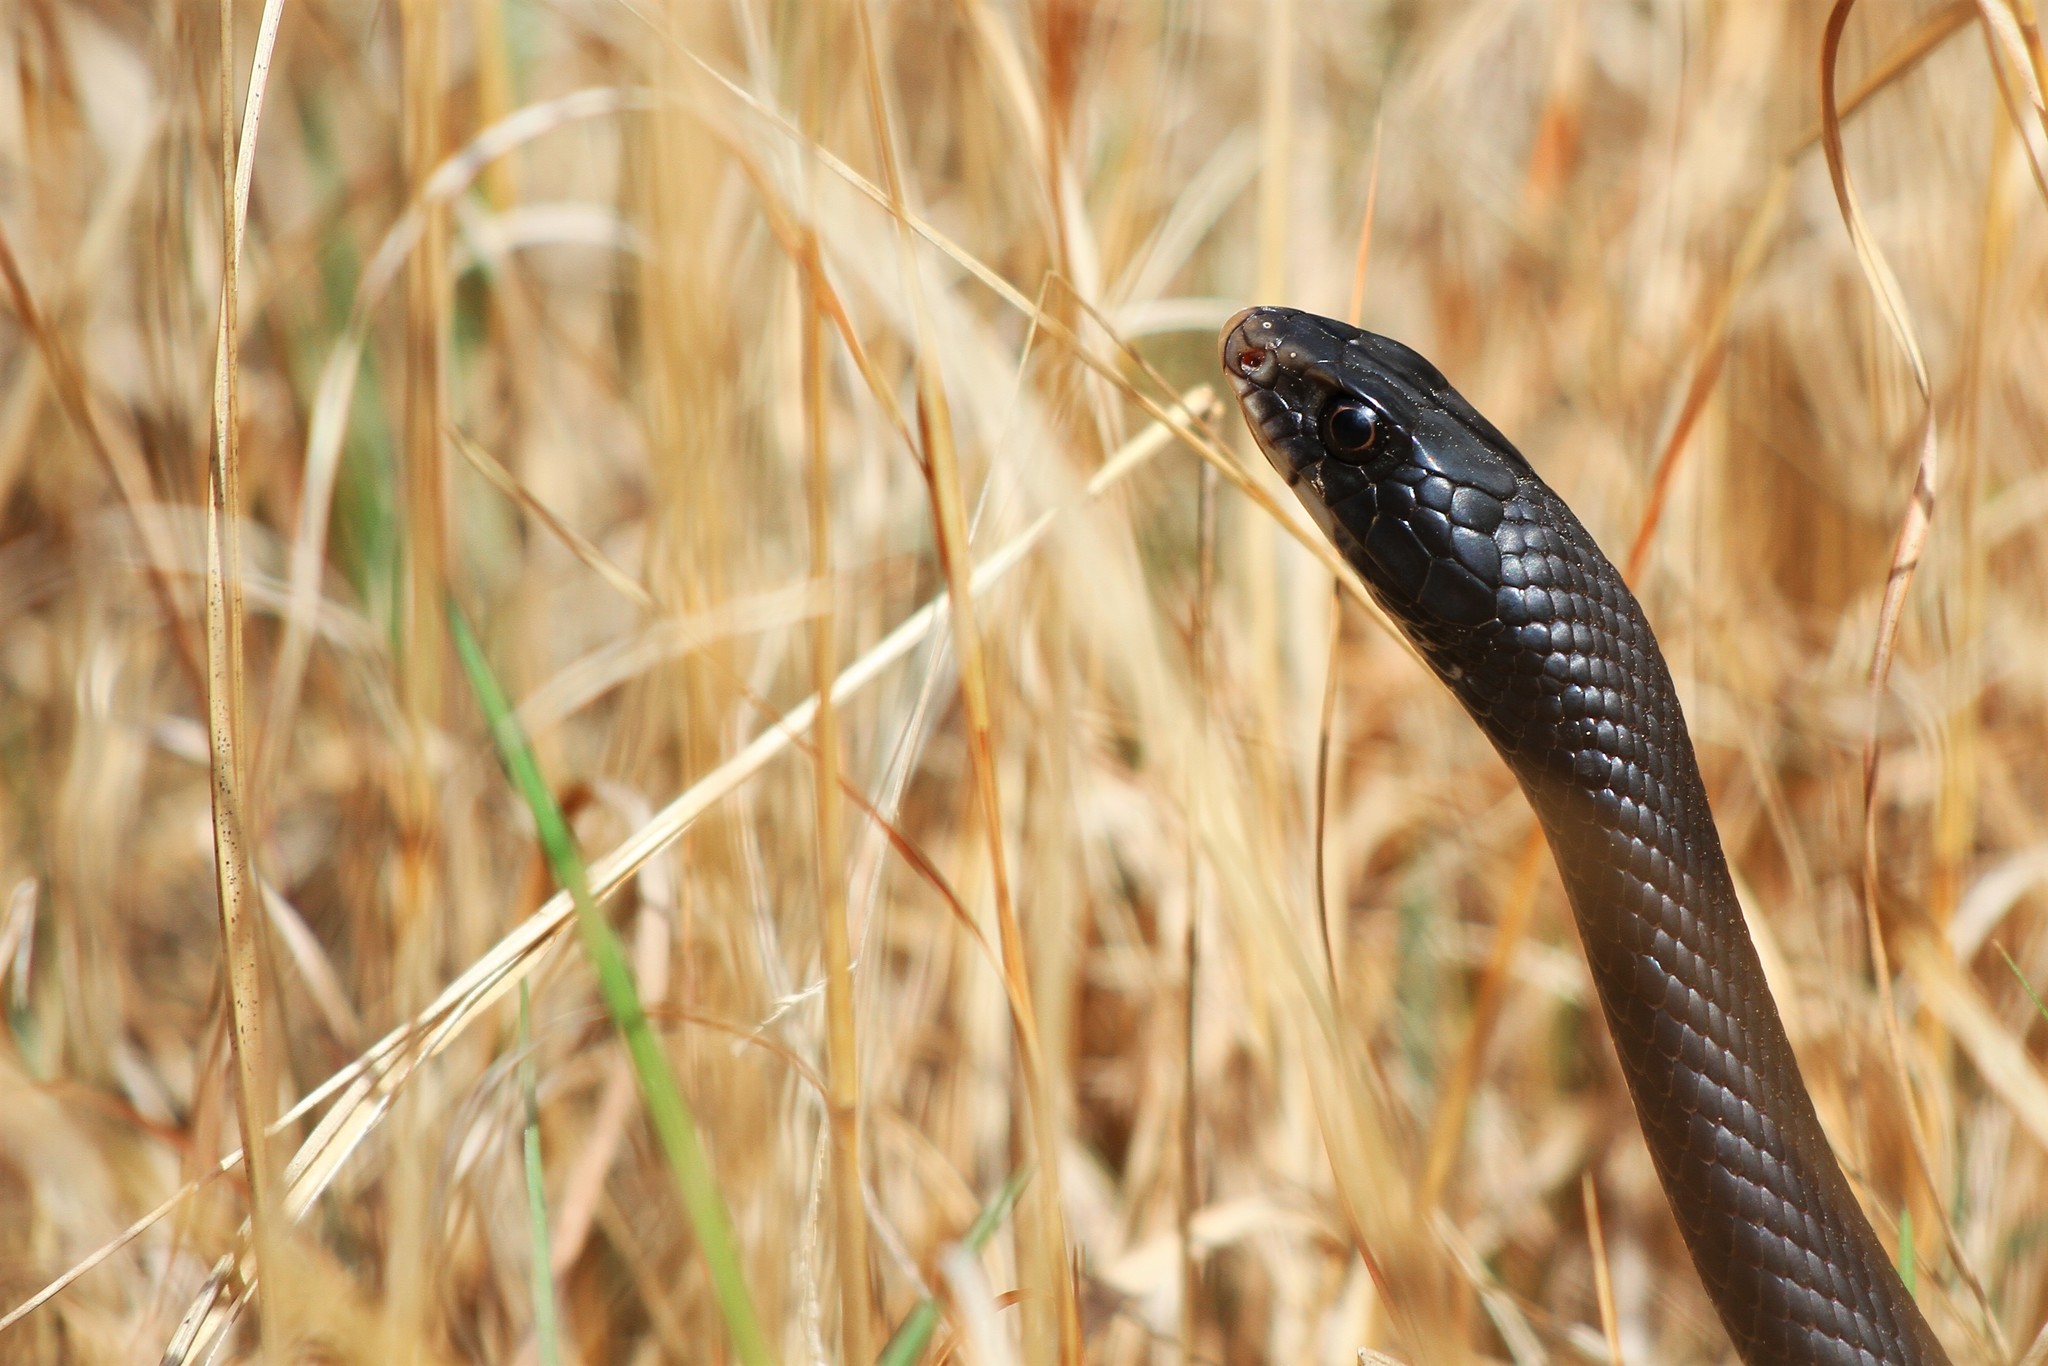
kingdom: Animalia
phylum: Chordata
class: Squamata
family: Colubridae
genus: Coluber
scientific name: Coluber constrictor
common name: Eastern racer
